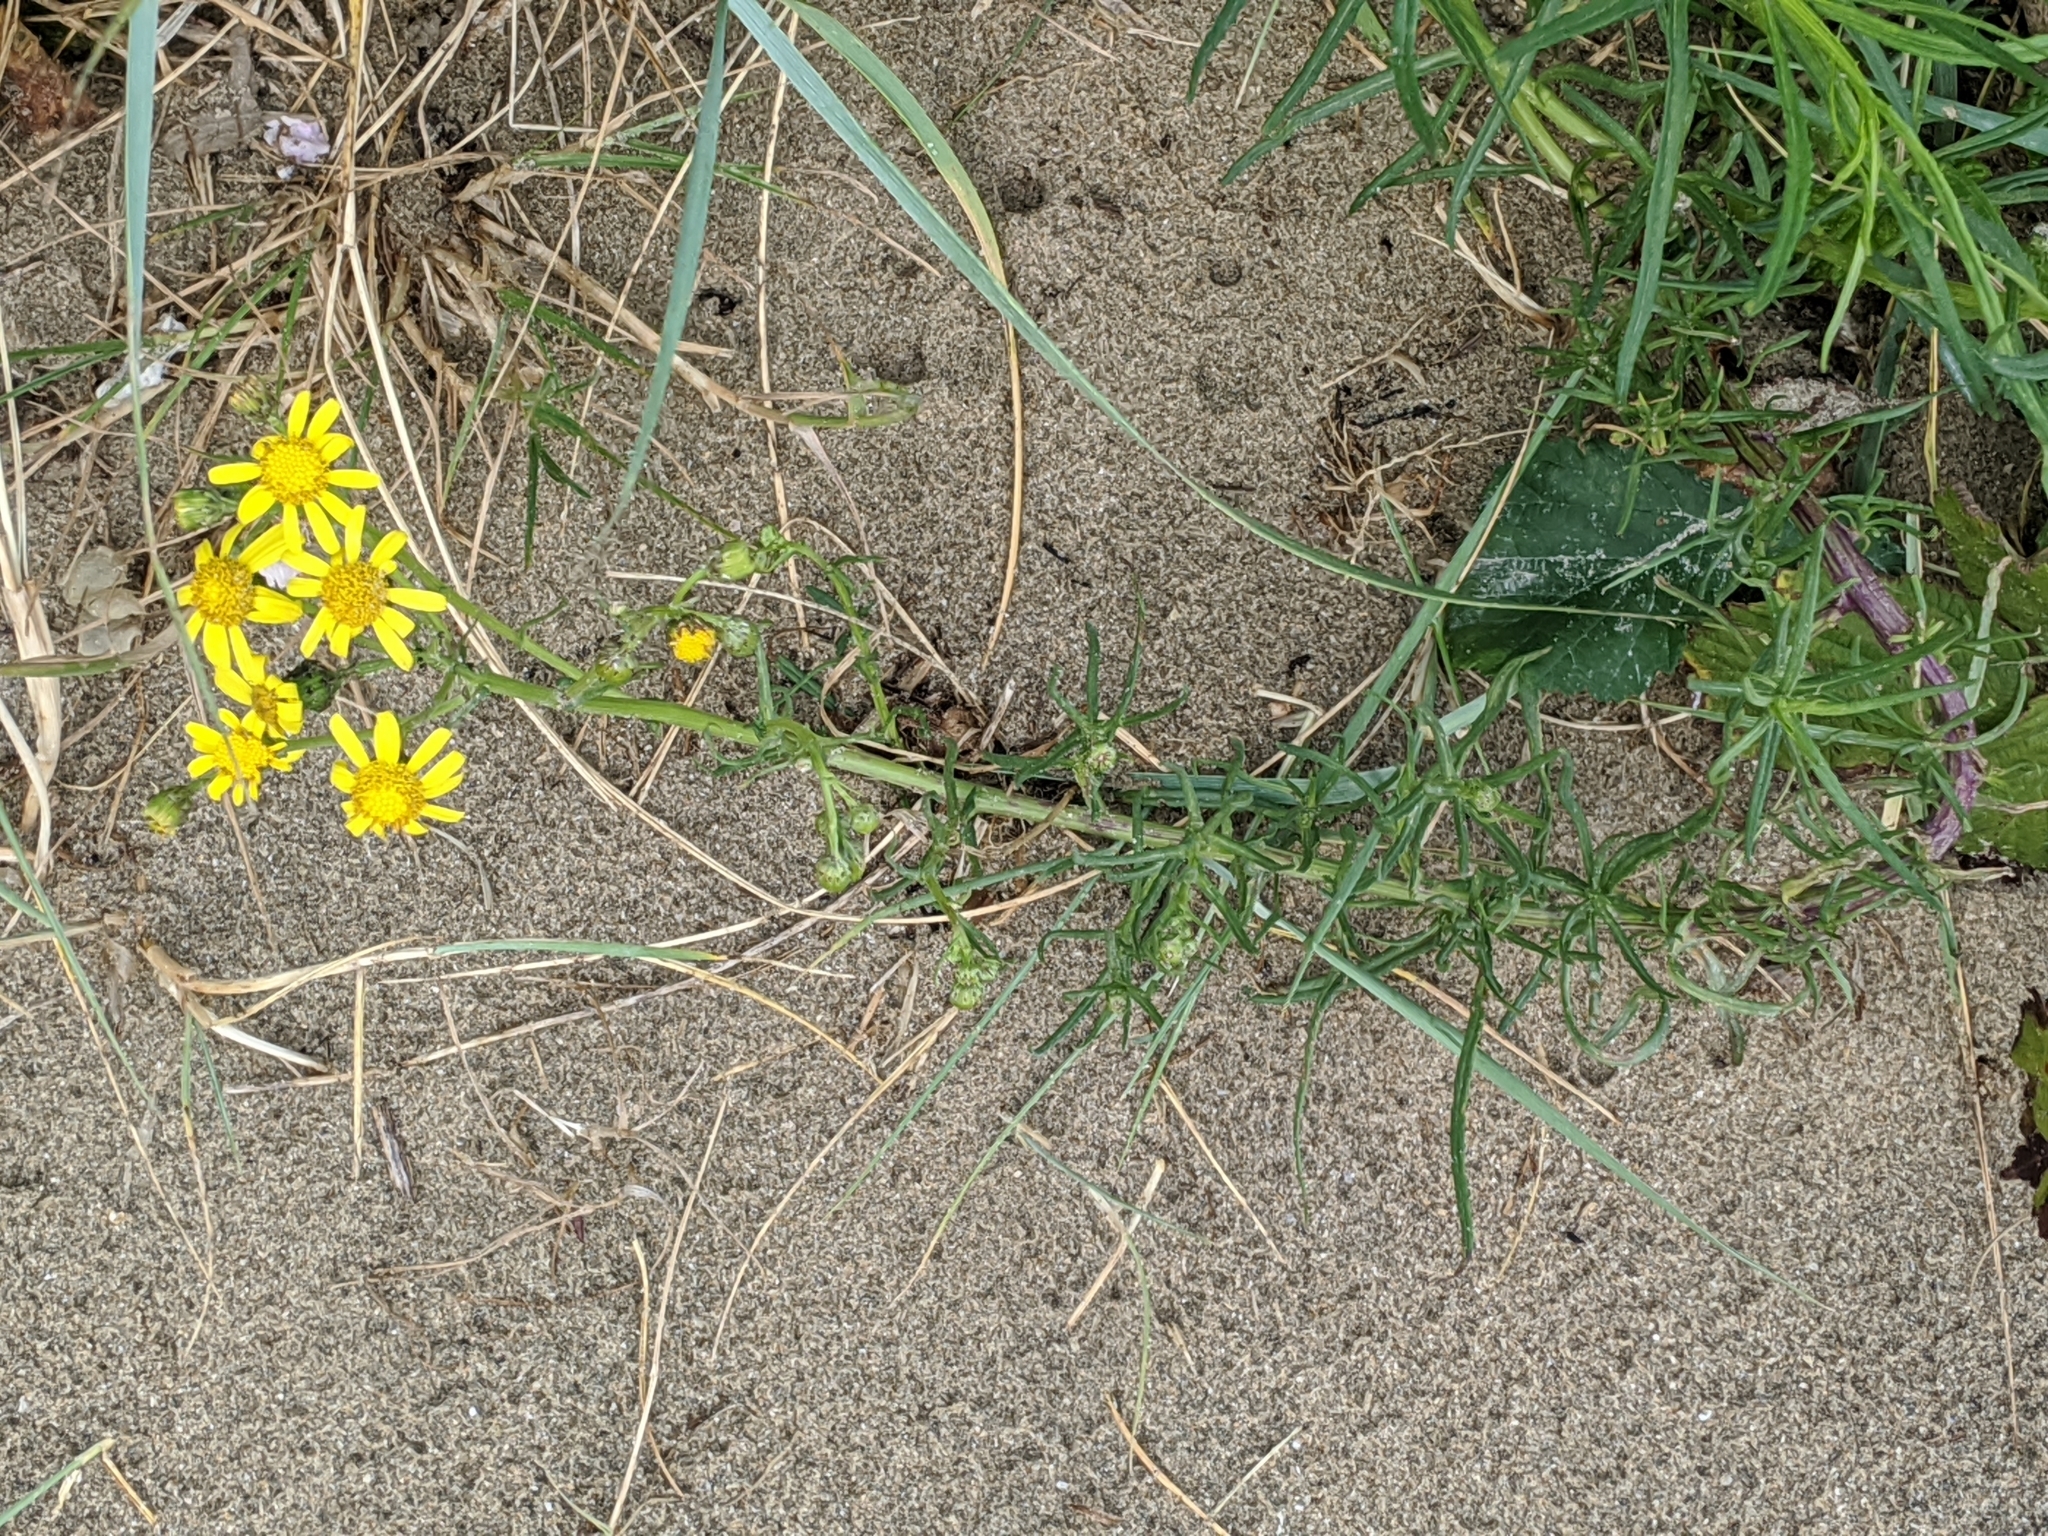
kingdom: Plantae
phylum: Tracheophyta
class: Magnoliopsida
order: Asterales
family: Asteraceae
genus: Senecio
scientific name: Senecio inaequidens
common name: Narrow-leaved ragwort
